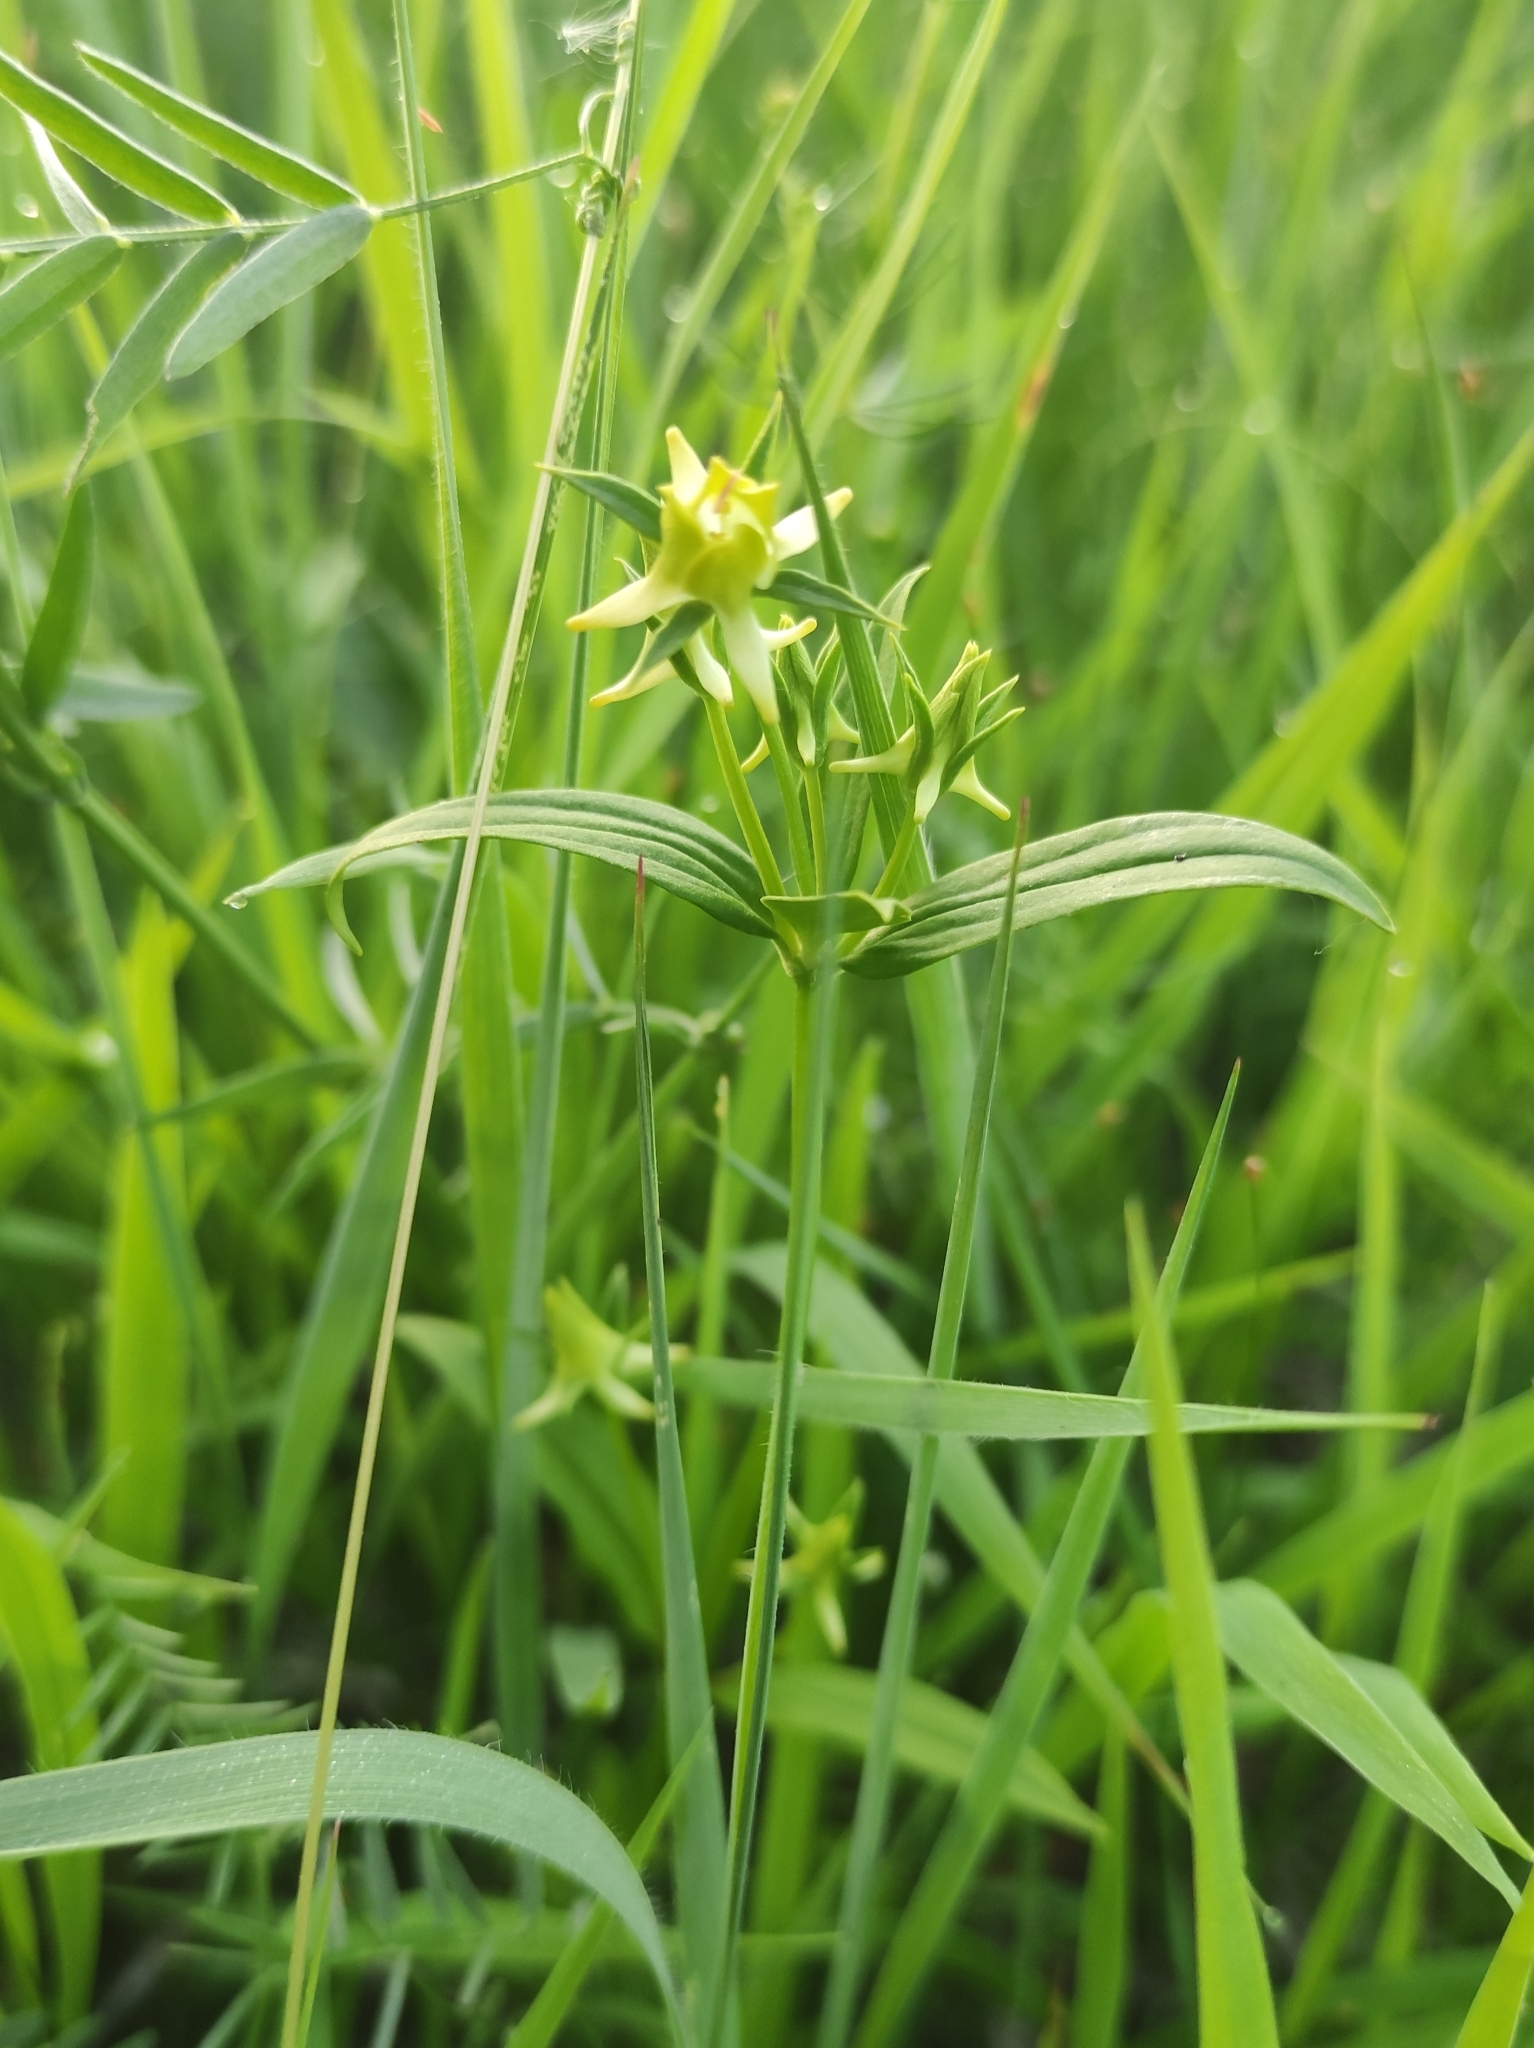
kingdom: Plantae
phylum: Tracheophyta
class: Magnoliopsida
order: Gentianales
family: Gentianaceae
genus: Halenia
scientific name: Halenia corniculata
